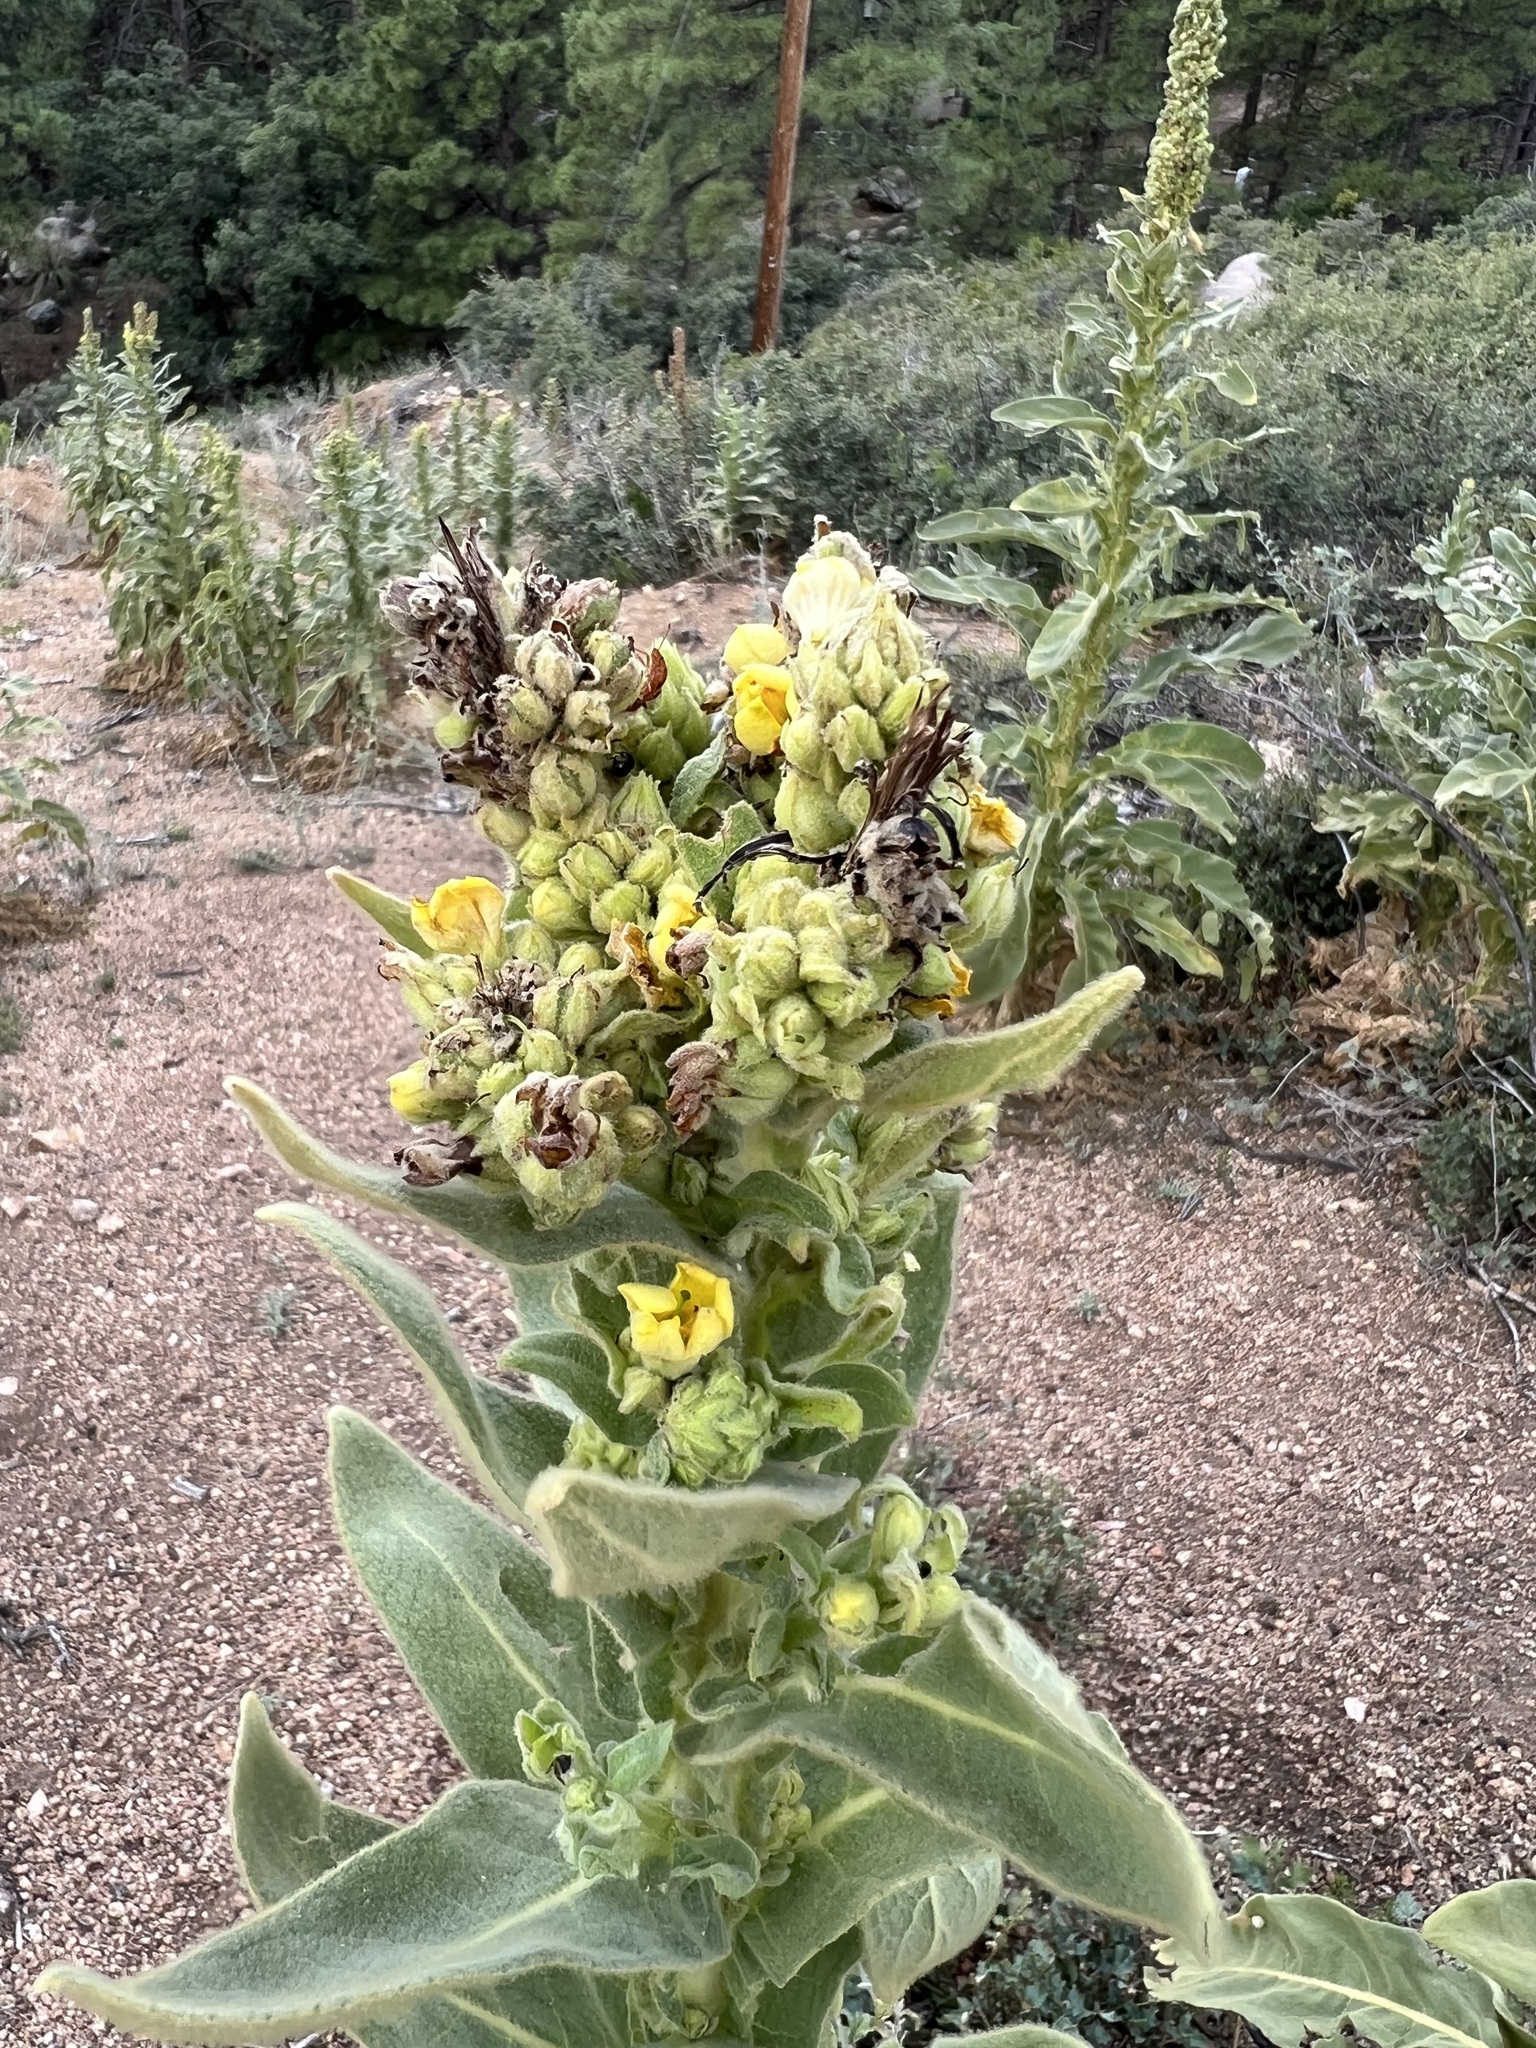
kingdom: Plantae
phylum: Tracheophyta
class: Magnoliopsida
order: Lamiales
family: Scrophulariaceae
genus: Verbascum
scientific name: Verbascum thapsus
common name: Common mullein
